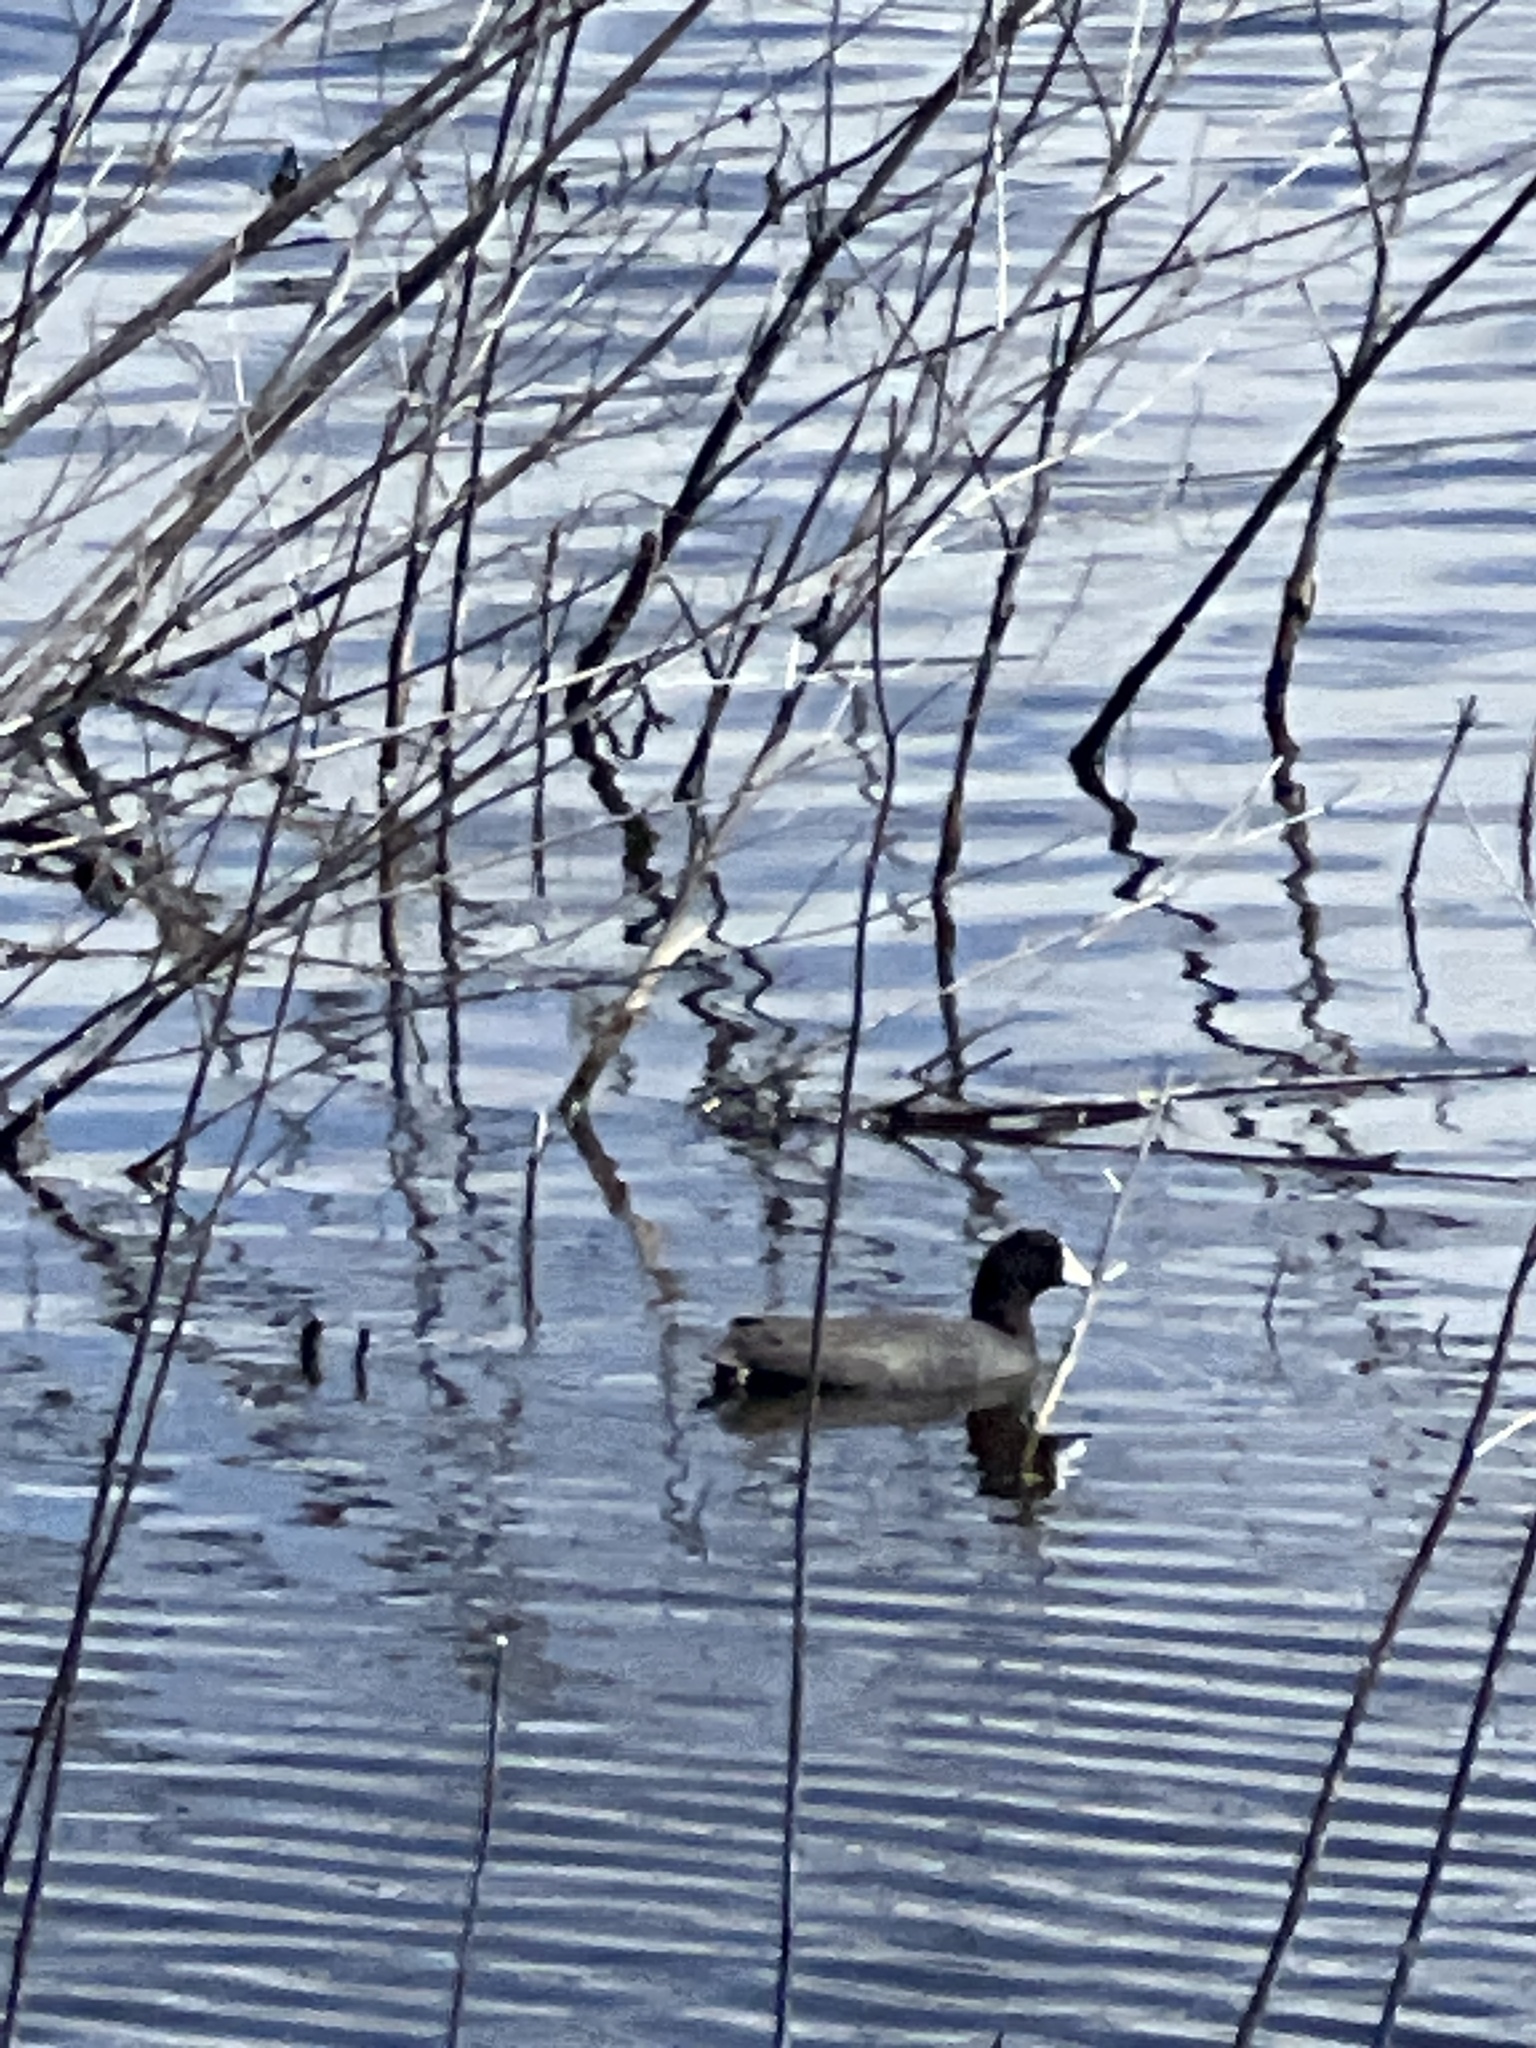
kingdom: Animalia
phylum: Chordata
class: Aves
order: Gruiformes
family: Rallidae
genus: Fulica
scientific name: Fulica americana
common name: American coot
